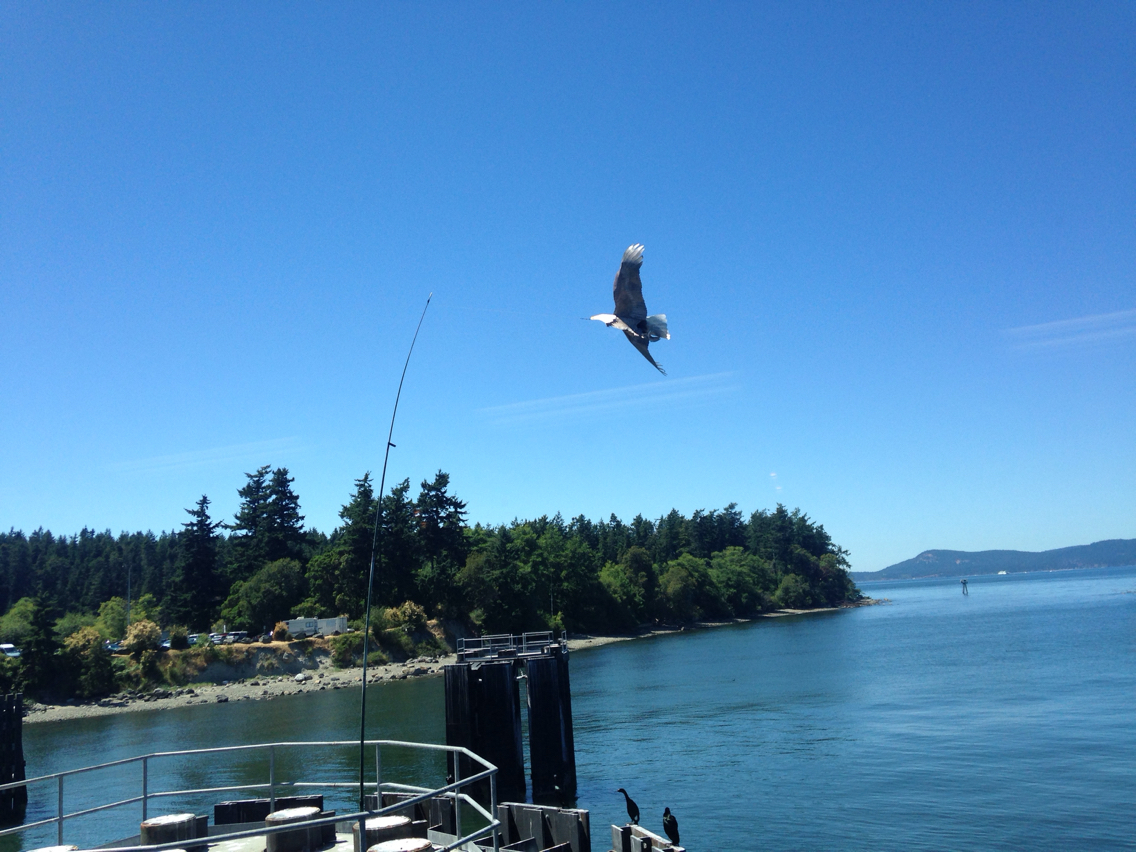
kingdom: Animalia
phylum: Chordata
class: Aves
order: Suliformes
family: Phalacrocoracidae
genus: Phalacrocorax
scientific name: Phalacrocorax pelagicus
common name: Pelagic cormorant
